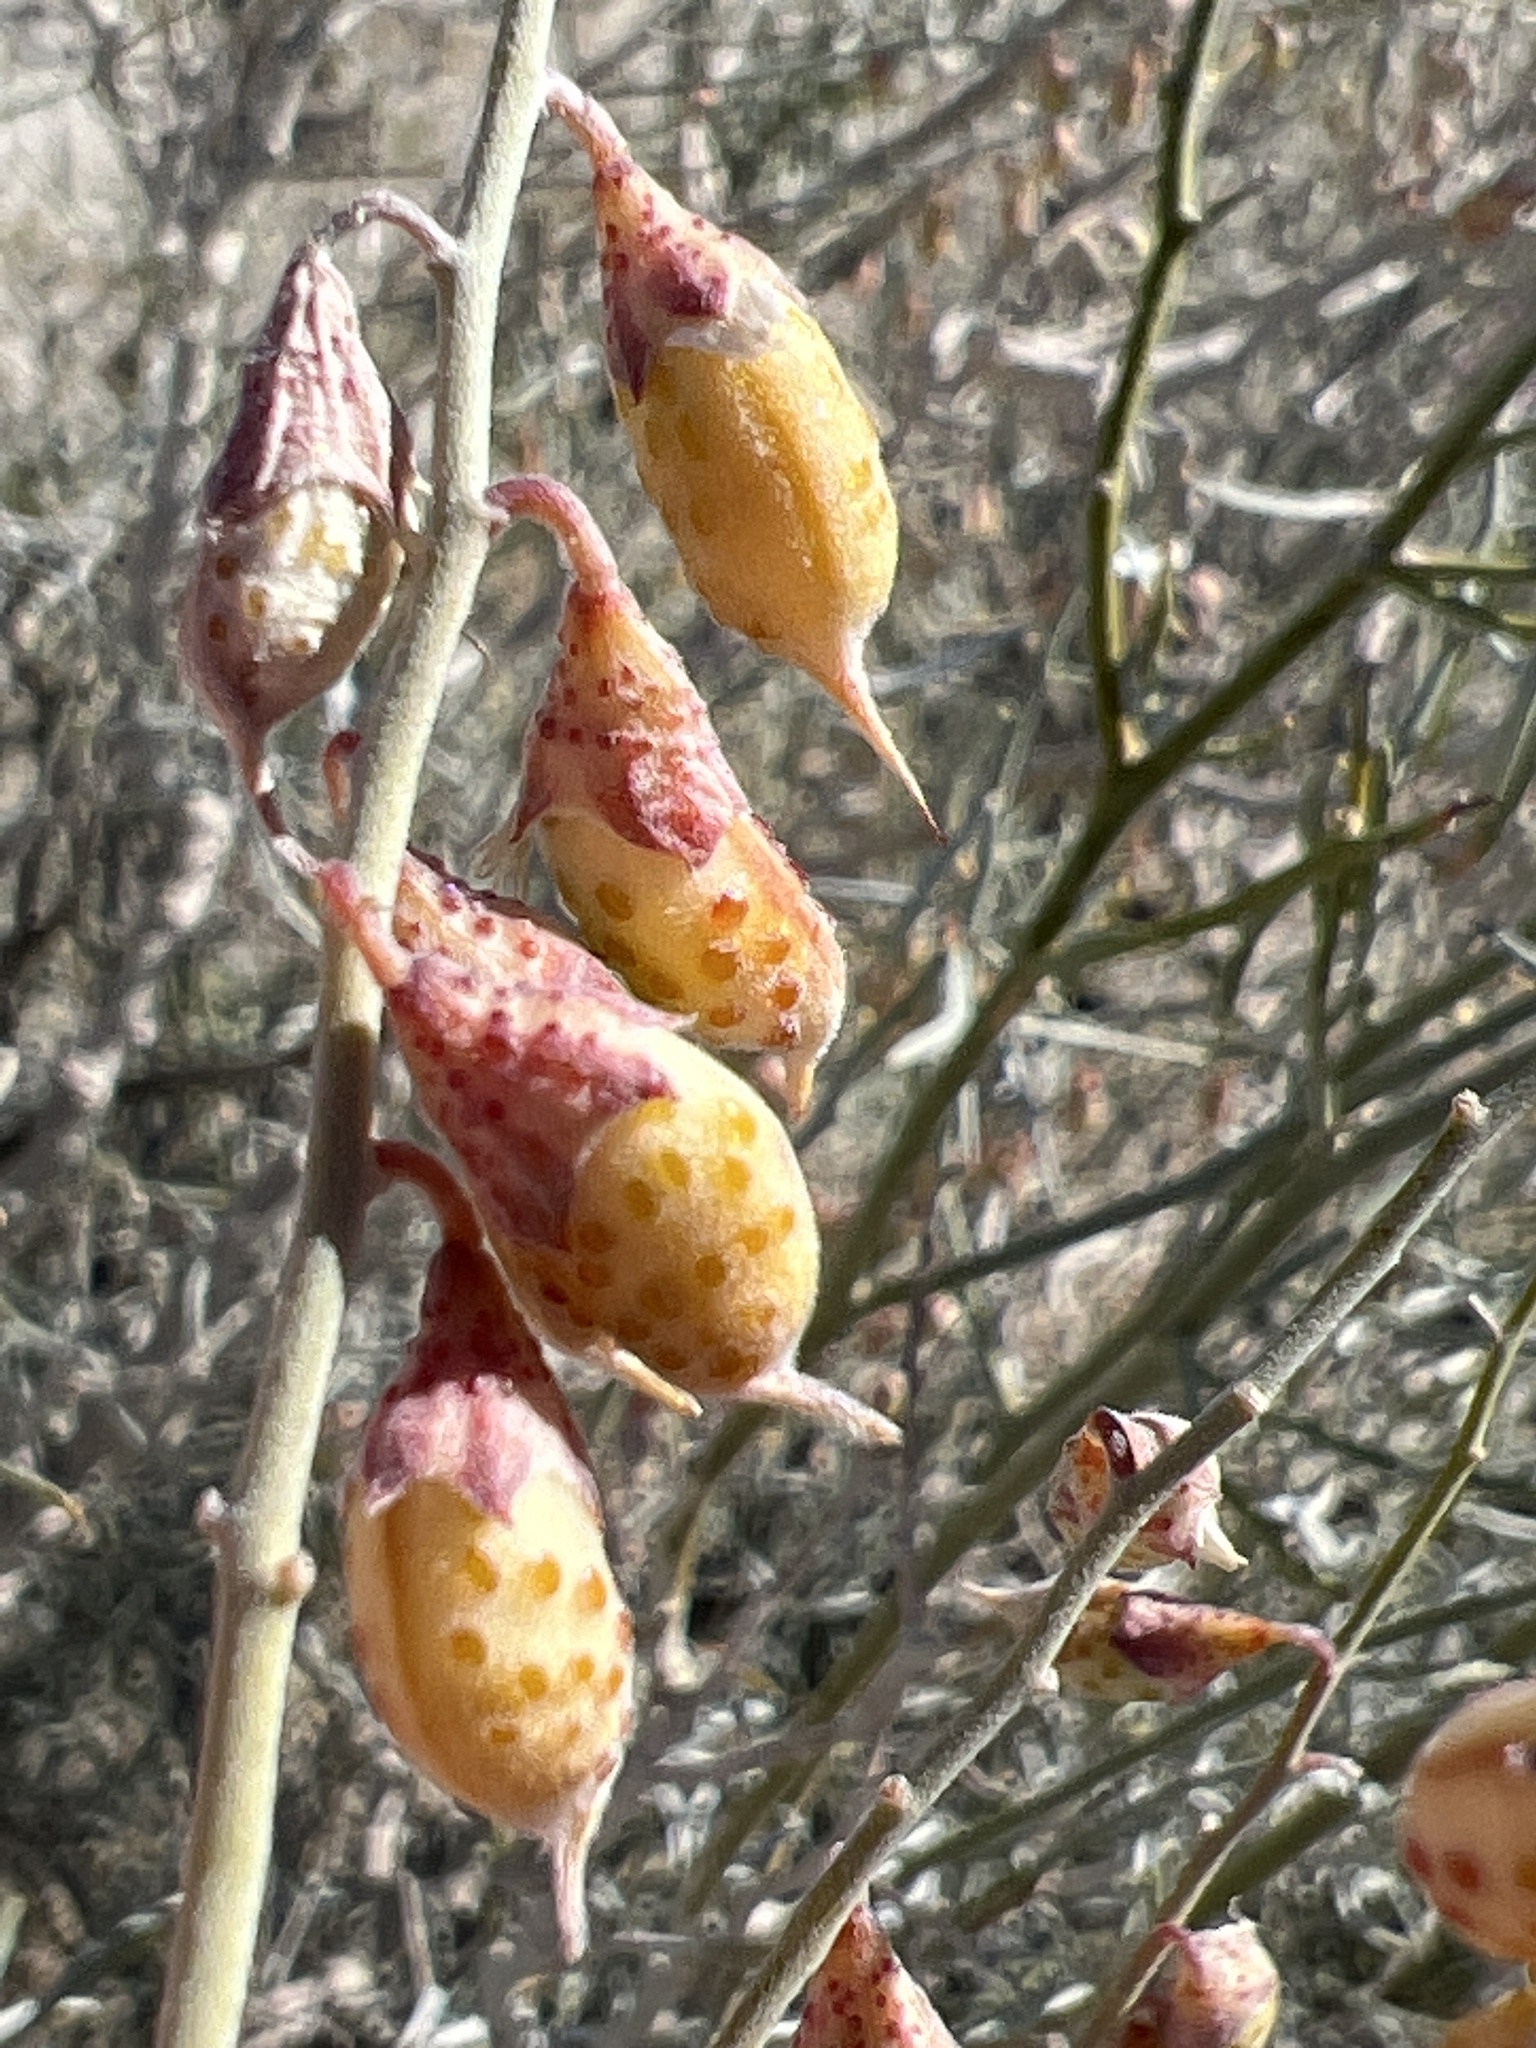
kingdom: Plantae
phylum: Tracheophyta
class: Magnoliopsida
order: Fabales
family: Fabaceae
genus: Psorothamnus
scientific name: Psorothamnus schottii
